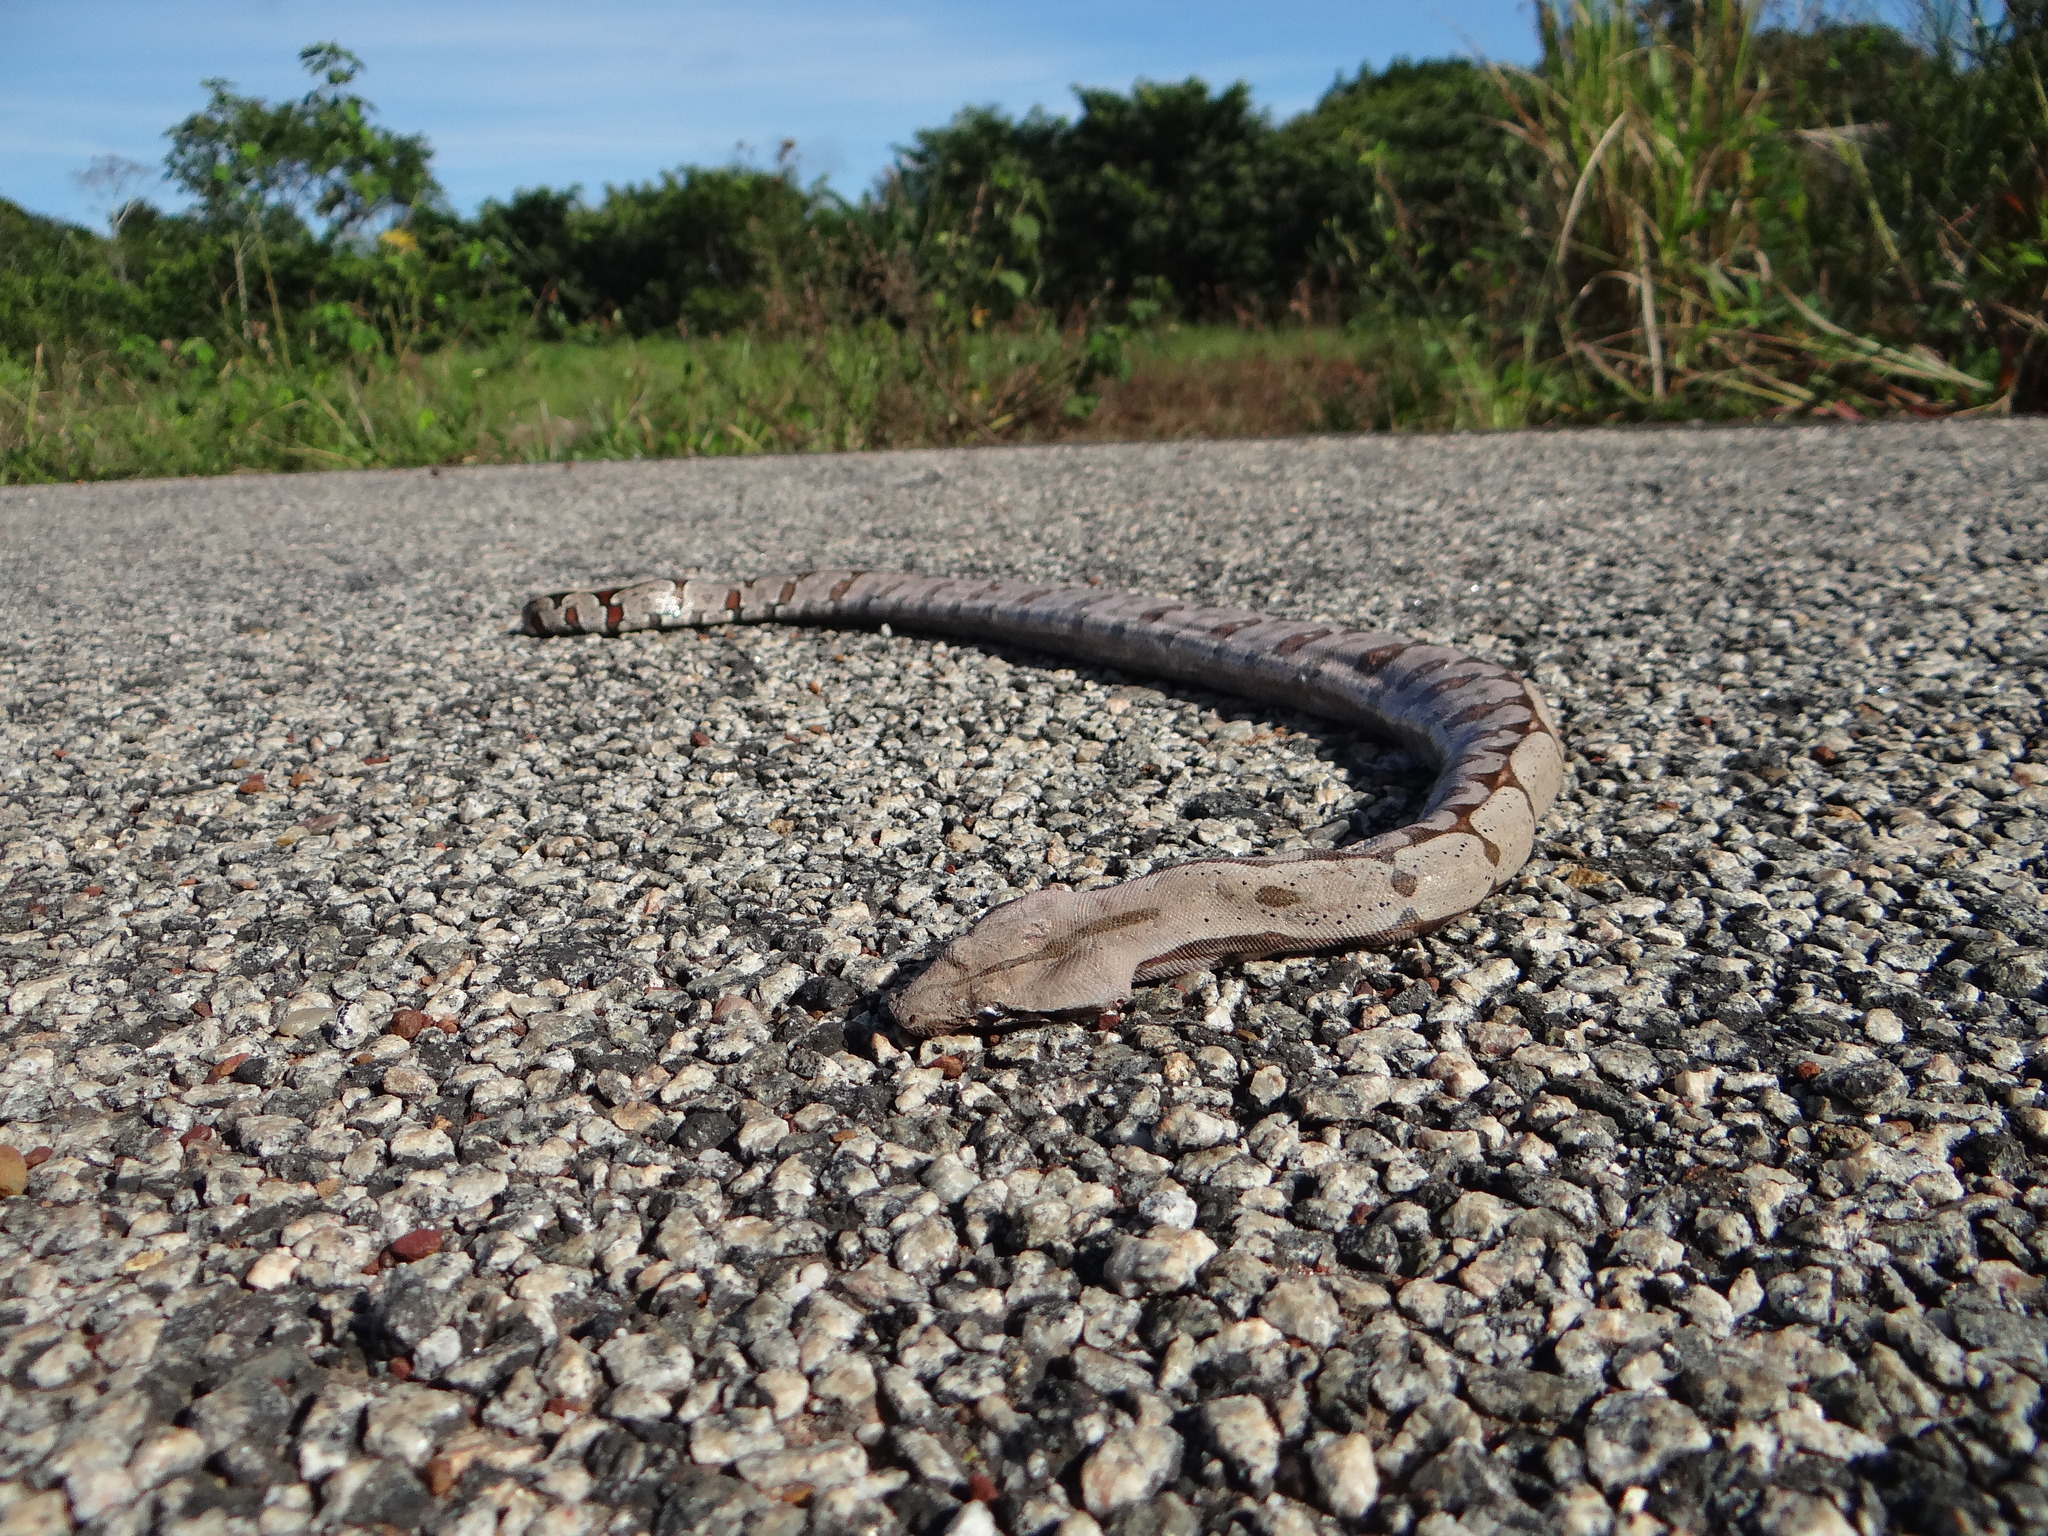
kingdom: Animalia
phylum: Chordata
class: Squamata
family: Boidae
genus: Boa
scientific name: Boa constrictor
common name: Boa constrictor
